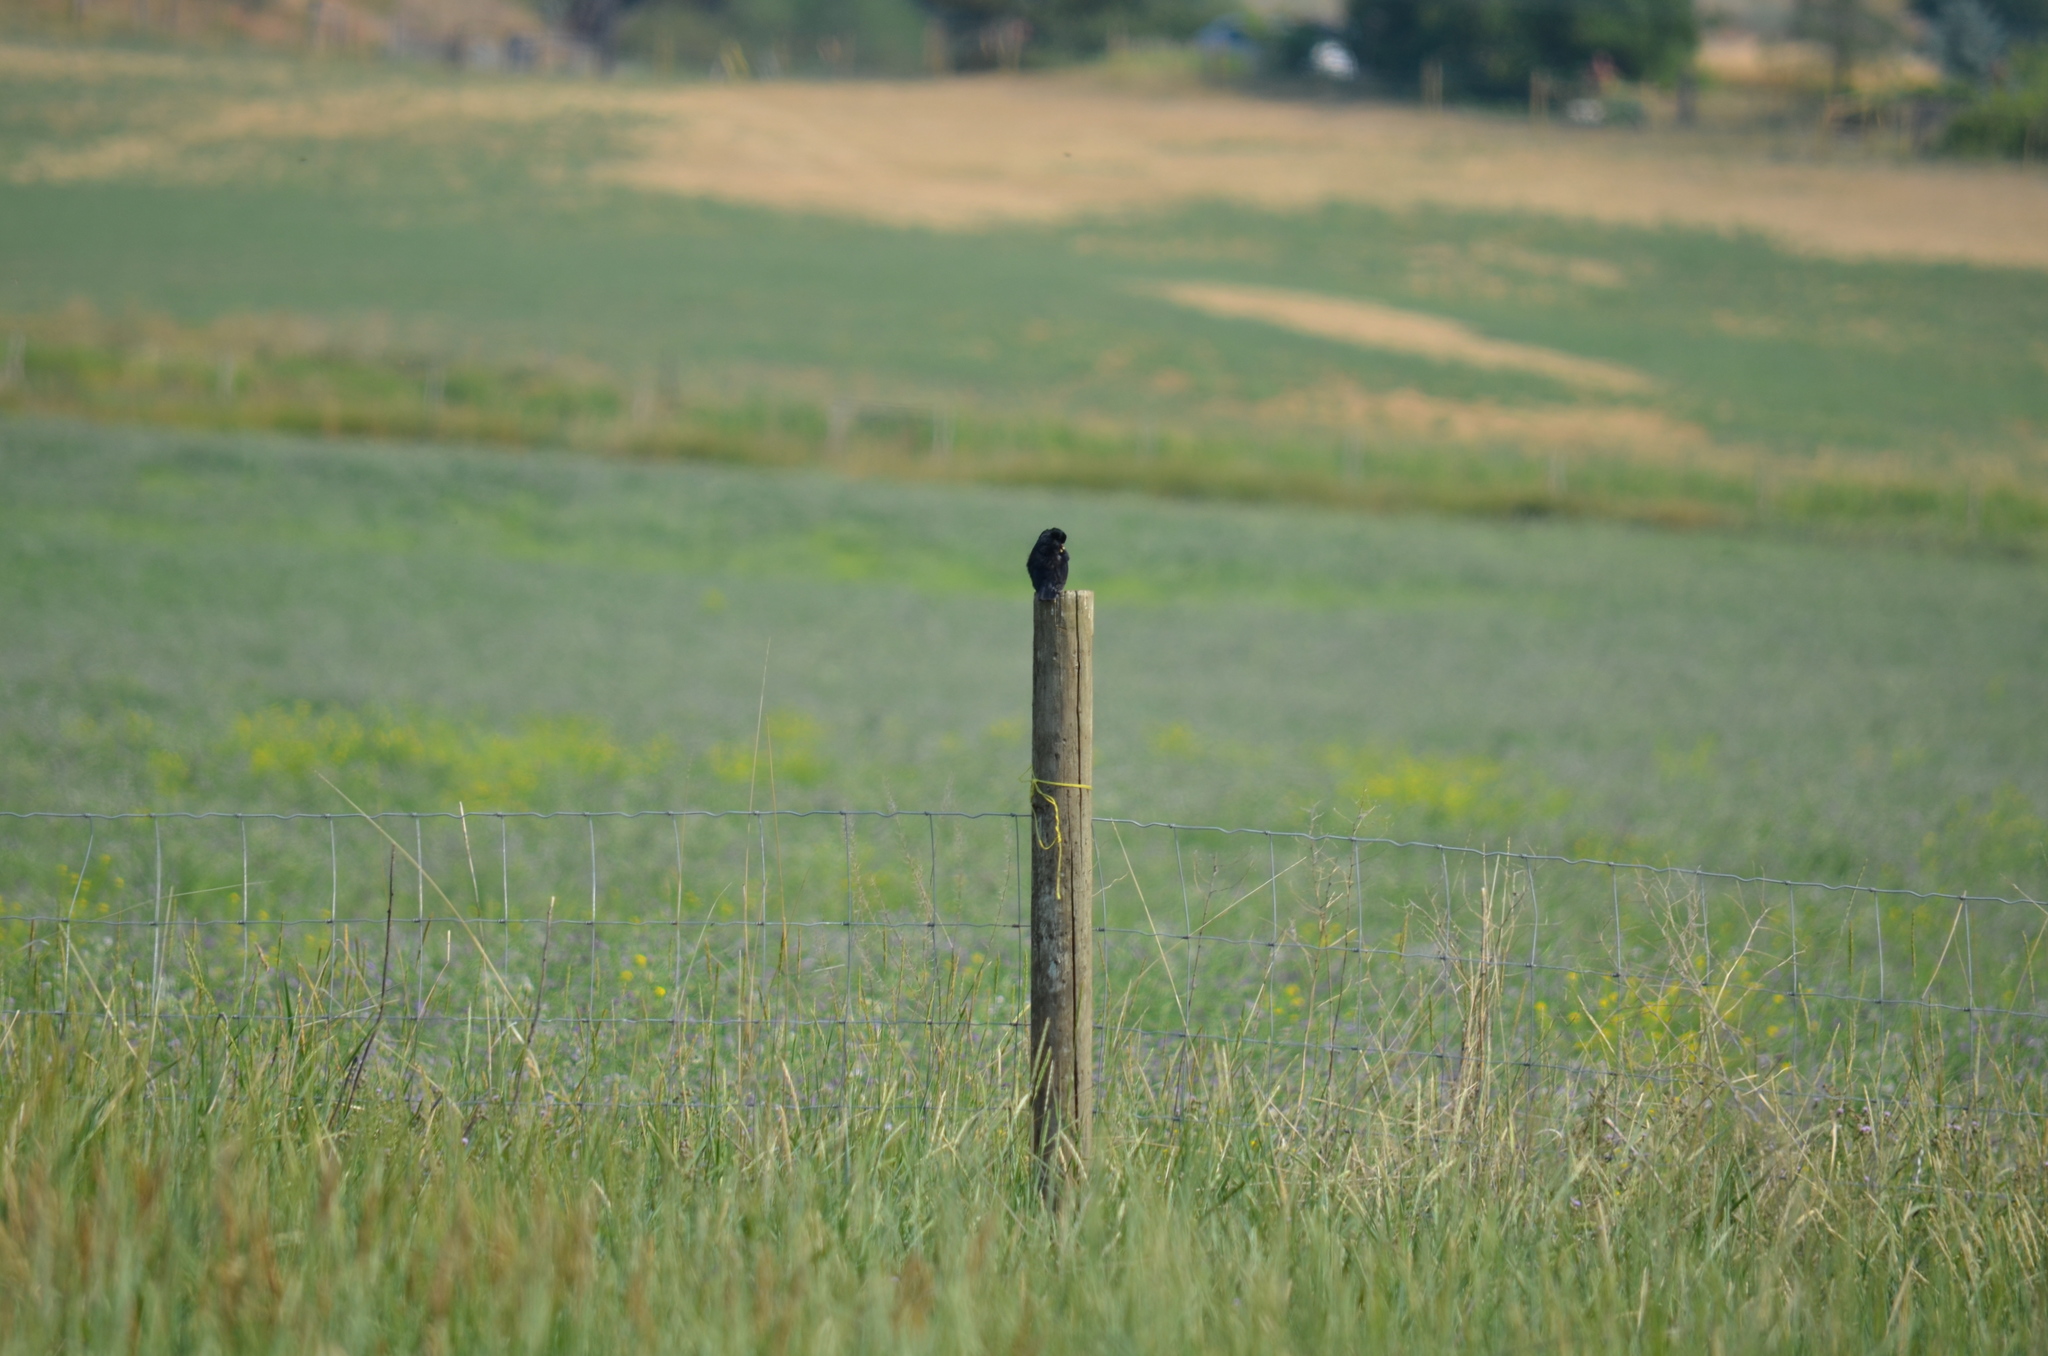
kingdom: Animalia
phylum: Chordata
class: Aves
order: Passeriformes
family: Icteridae
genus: Agelaius
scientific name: Agelaius phoeniceus
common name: Red-winged blackbird
